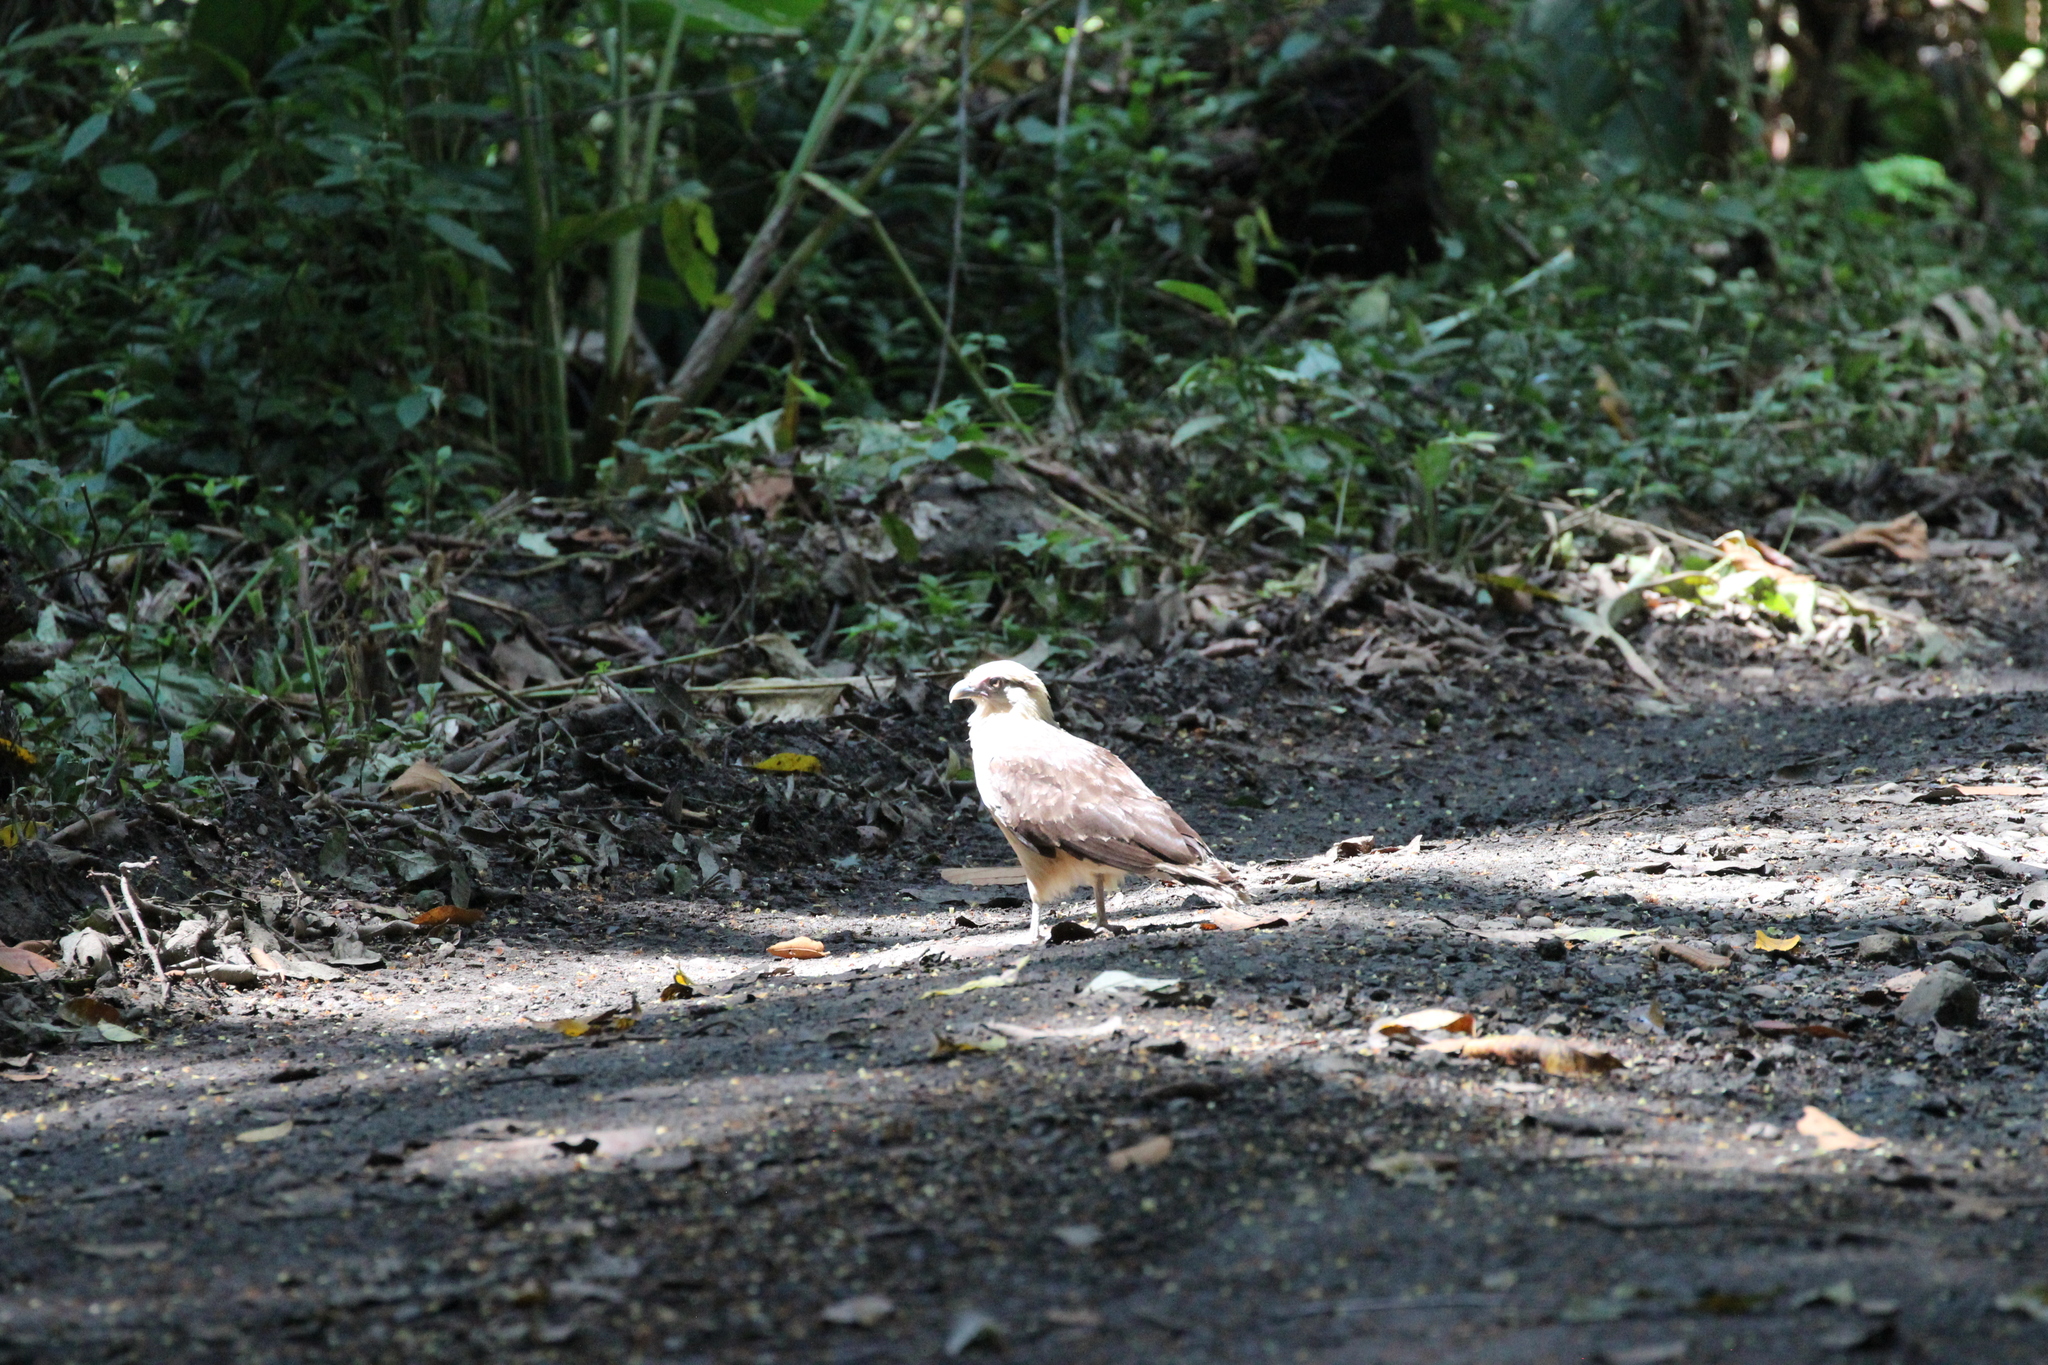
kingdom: Animalia
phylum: Chordata
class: Aves
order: Falconiformes
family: Falconidae
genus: Daptrius
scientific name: Daptrius
